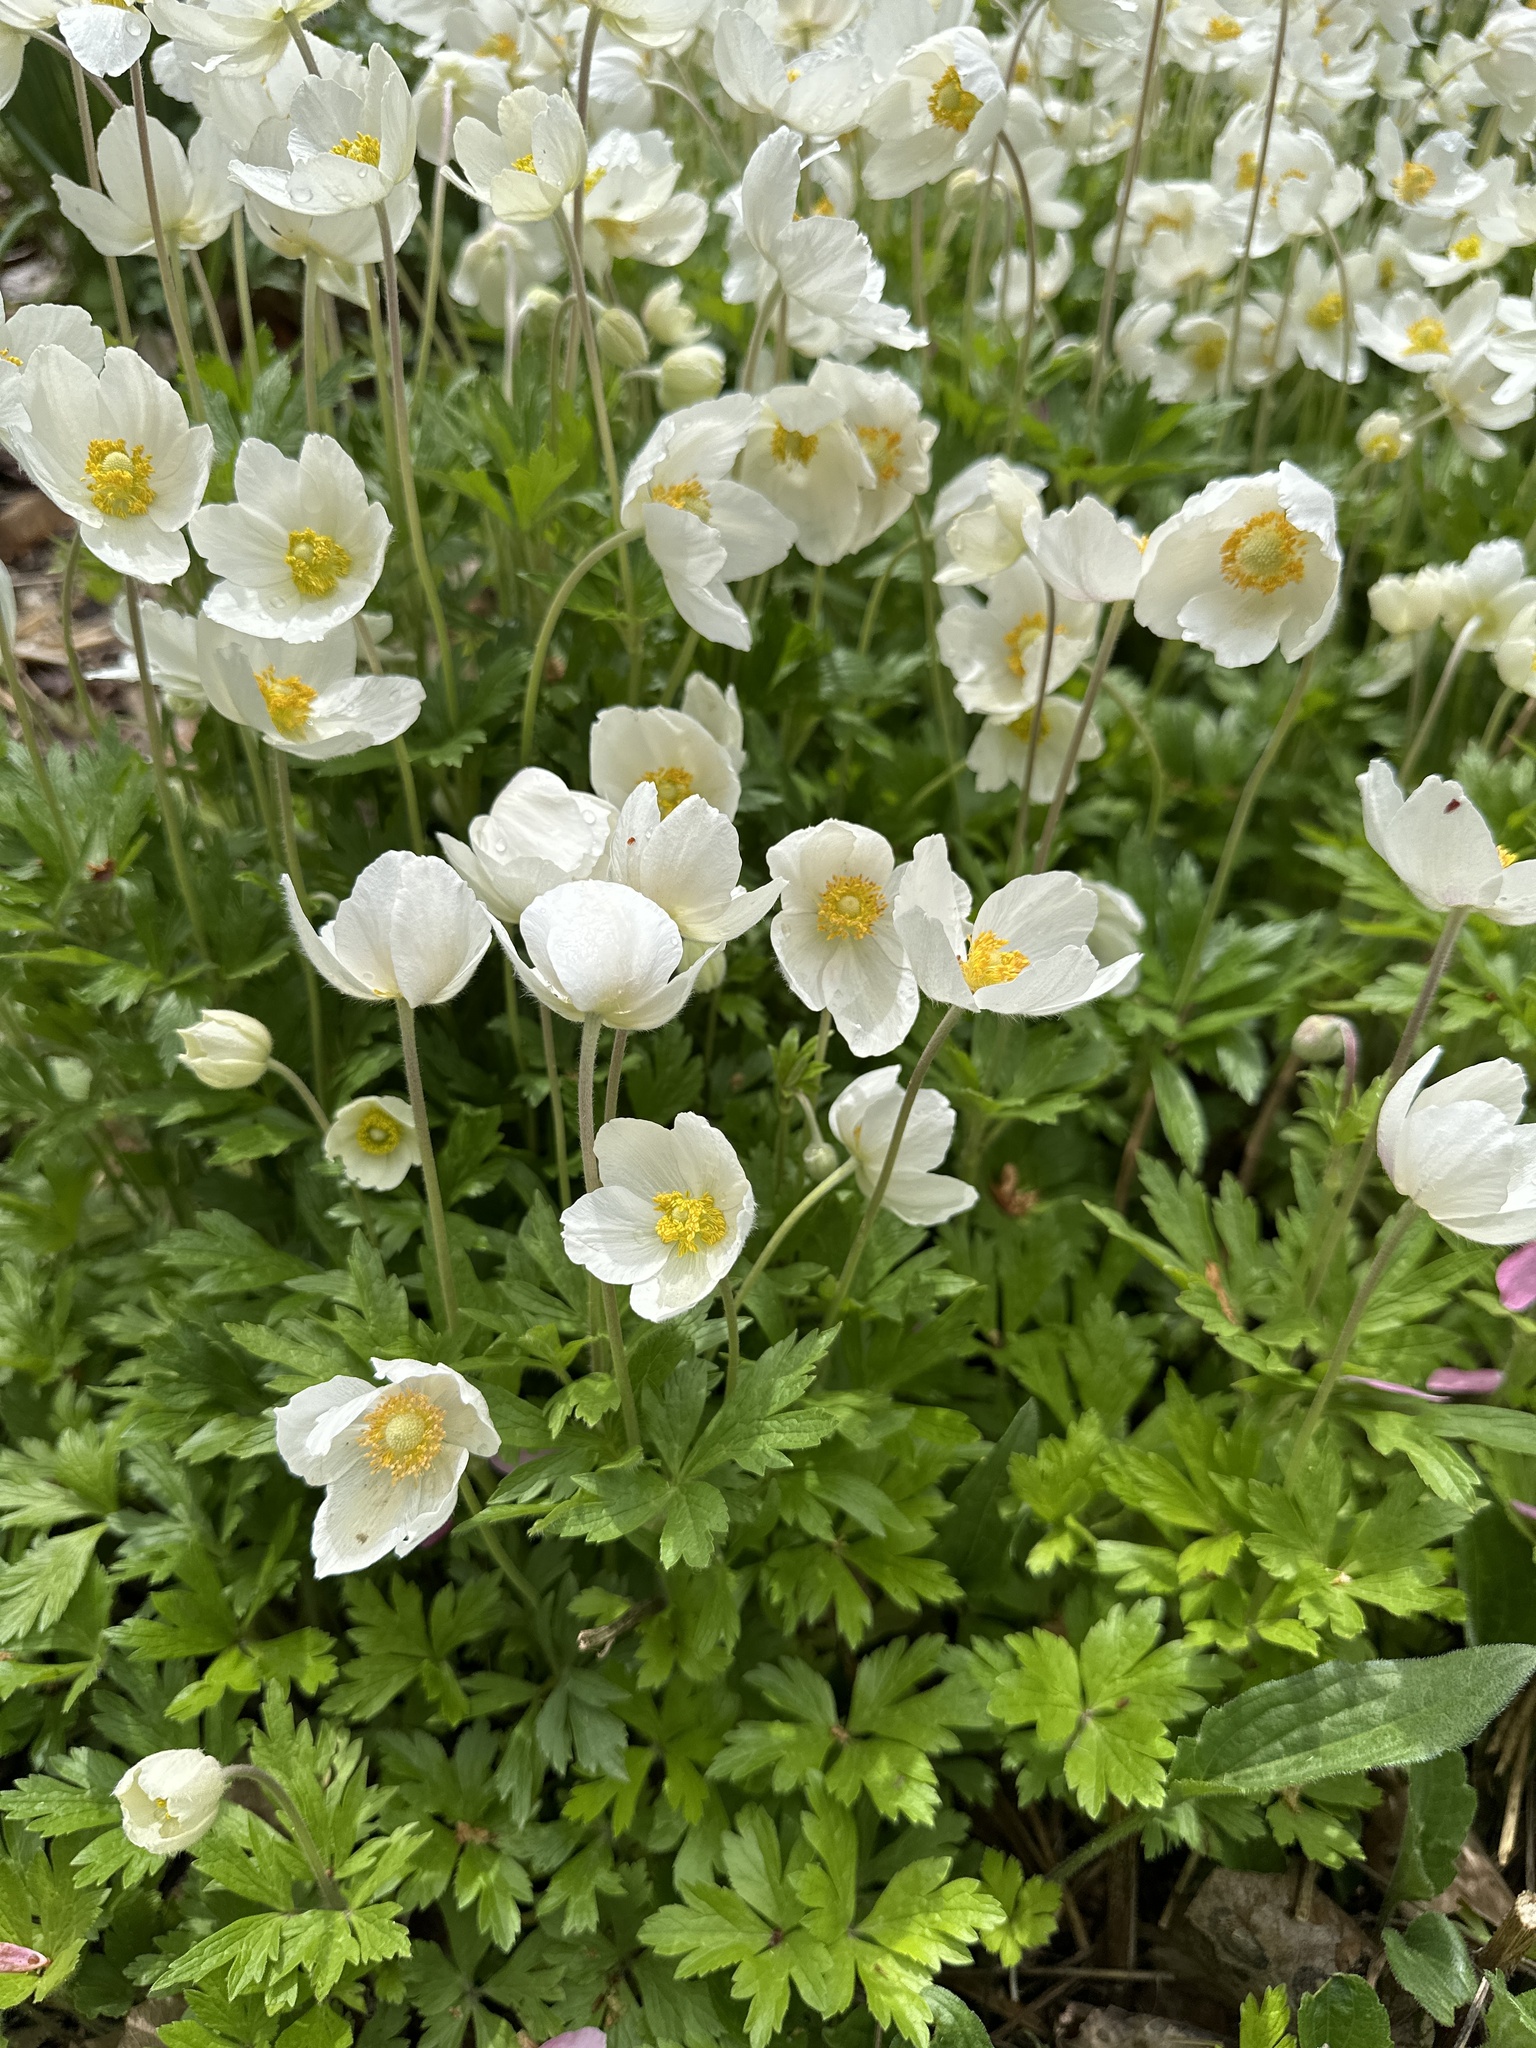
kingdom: Plantae
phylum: Tracheophyta
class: Magnoliopsida
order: Ranunculales
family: Ranunculaceae
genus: Anemone
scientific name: Anemone sylvestris
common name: Snowdrop anemone
